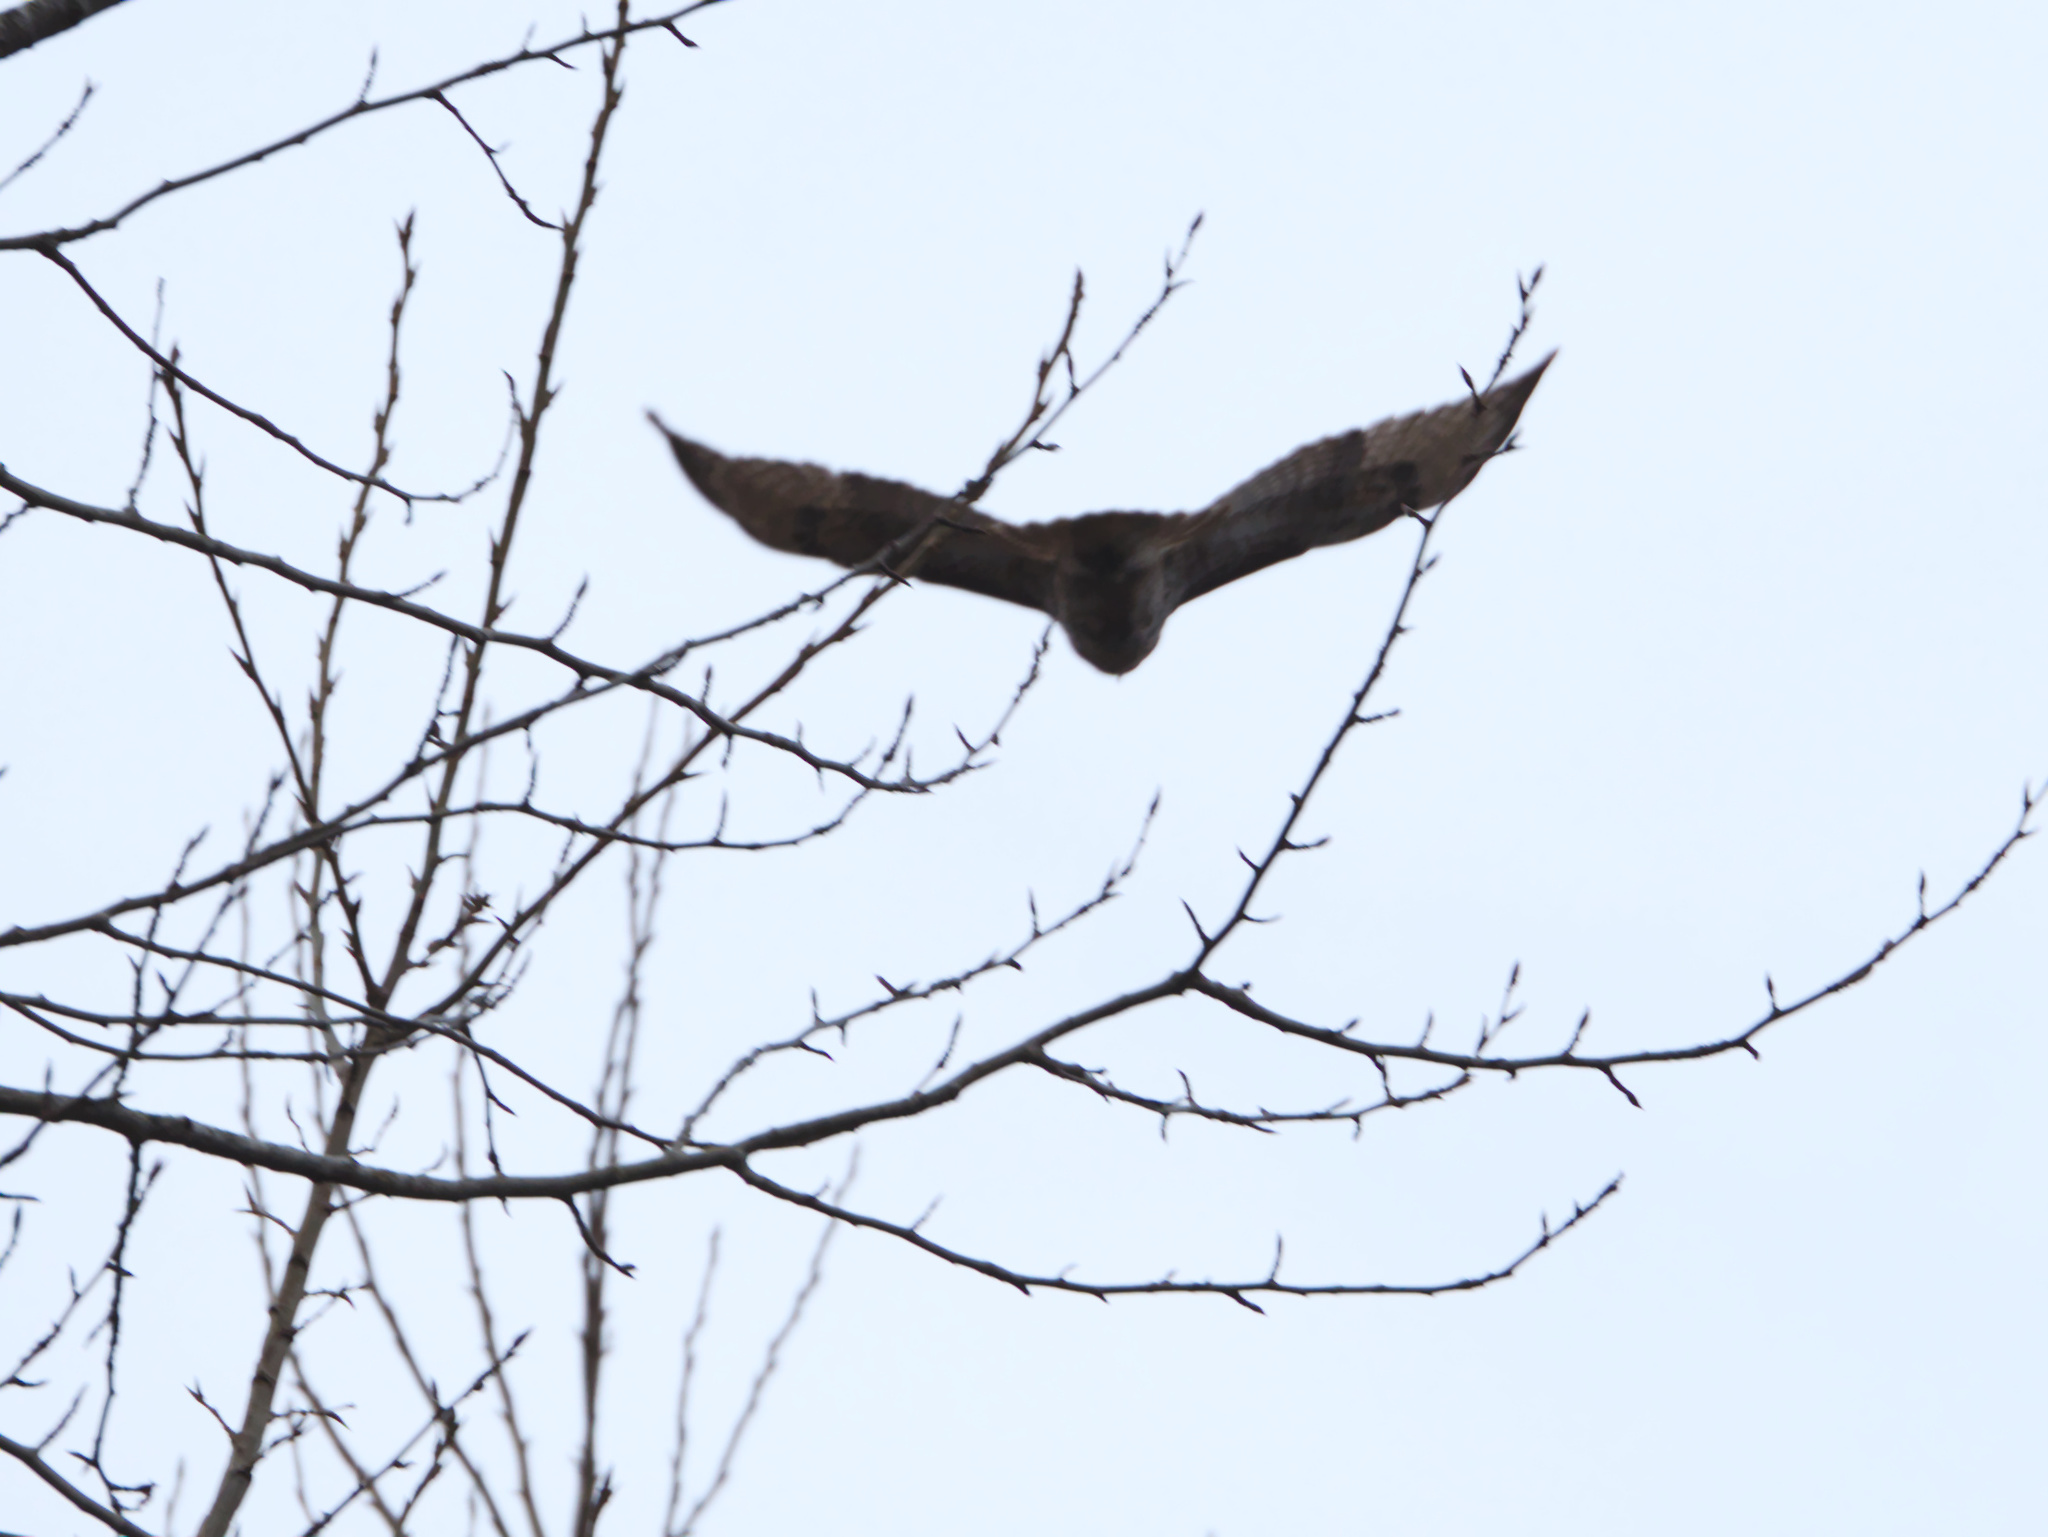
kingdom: Animalia
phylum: Chordata
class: Aves
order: Accipitriformes
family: Accipitridae
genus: Buteo
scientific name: Buteo jamaicensis
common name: Red-tailed hawk
